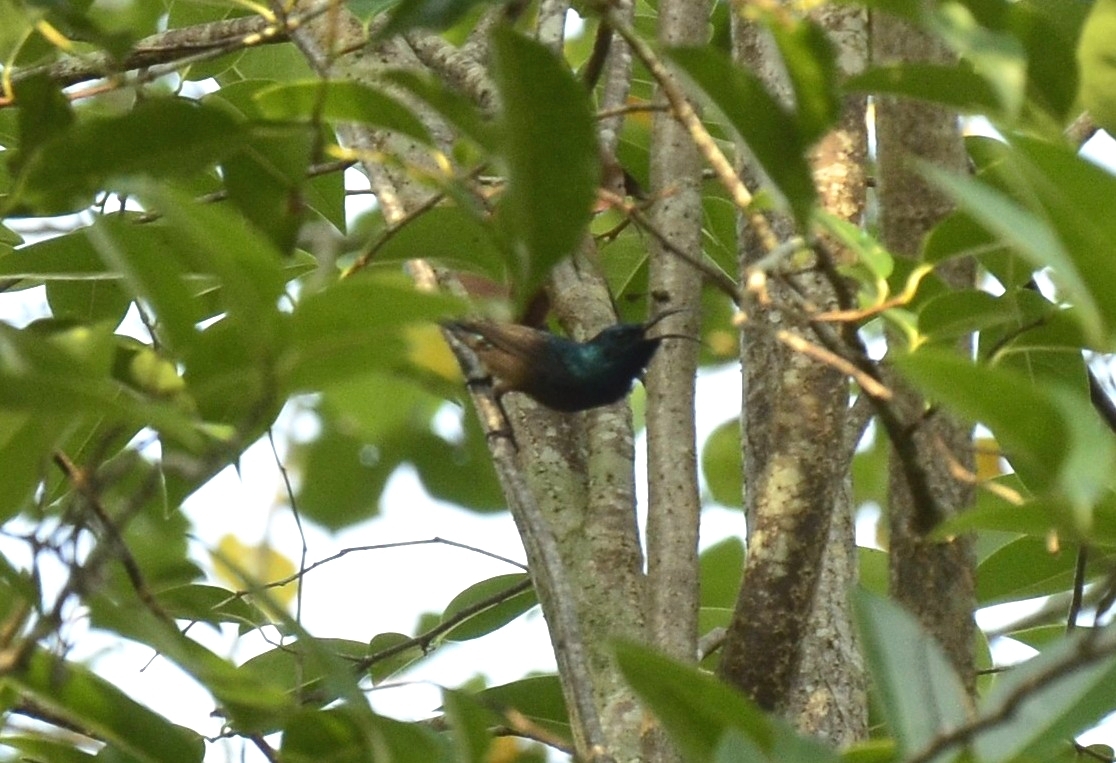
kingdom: Animalia
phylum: Chordata
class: Aves
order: Passeriformes
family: Nectariniidae
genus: Cinnyris
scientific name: Cinnyris lotenius
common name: Loten's sunbird
